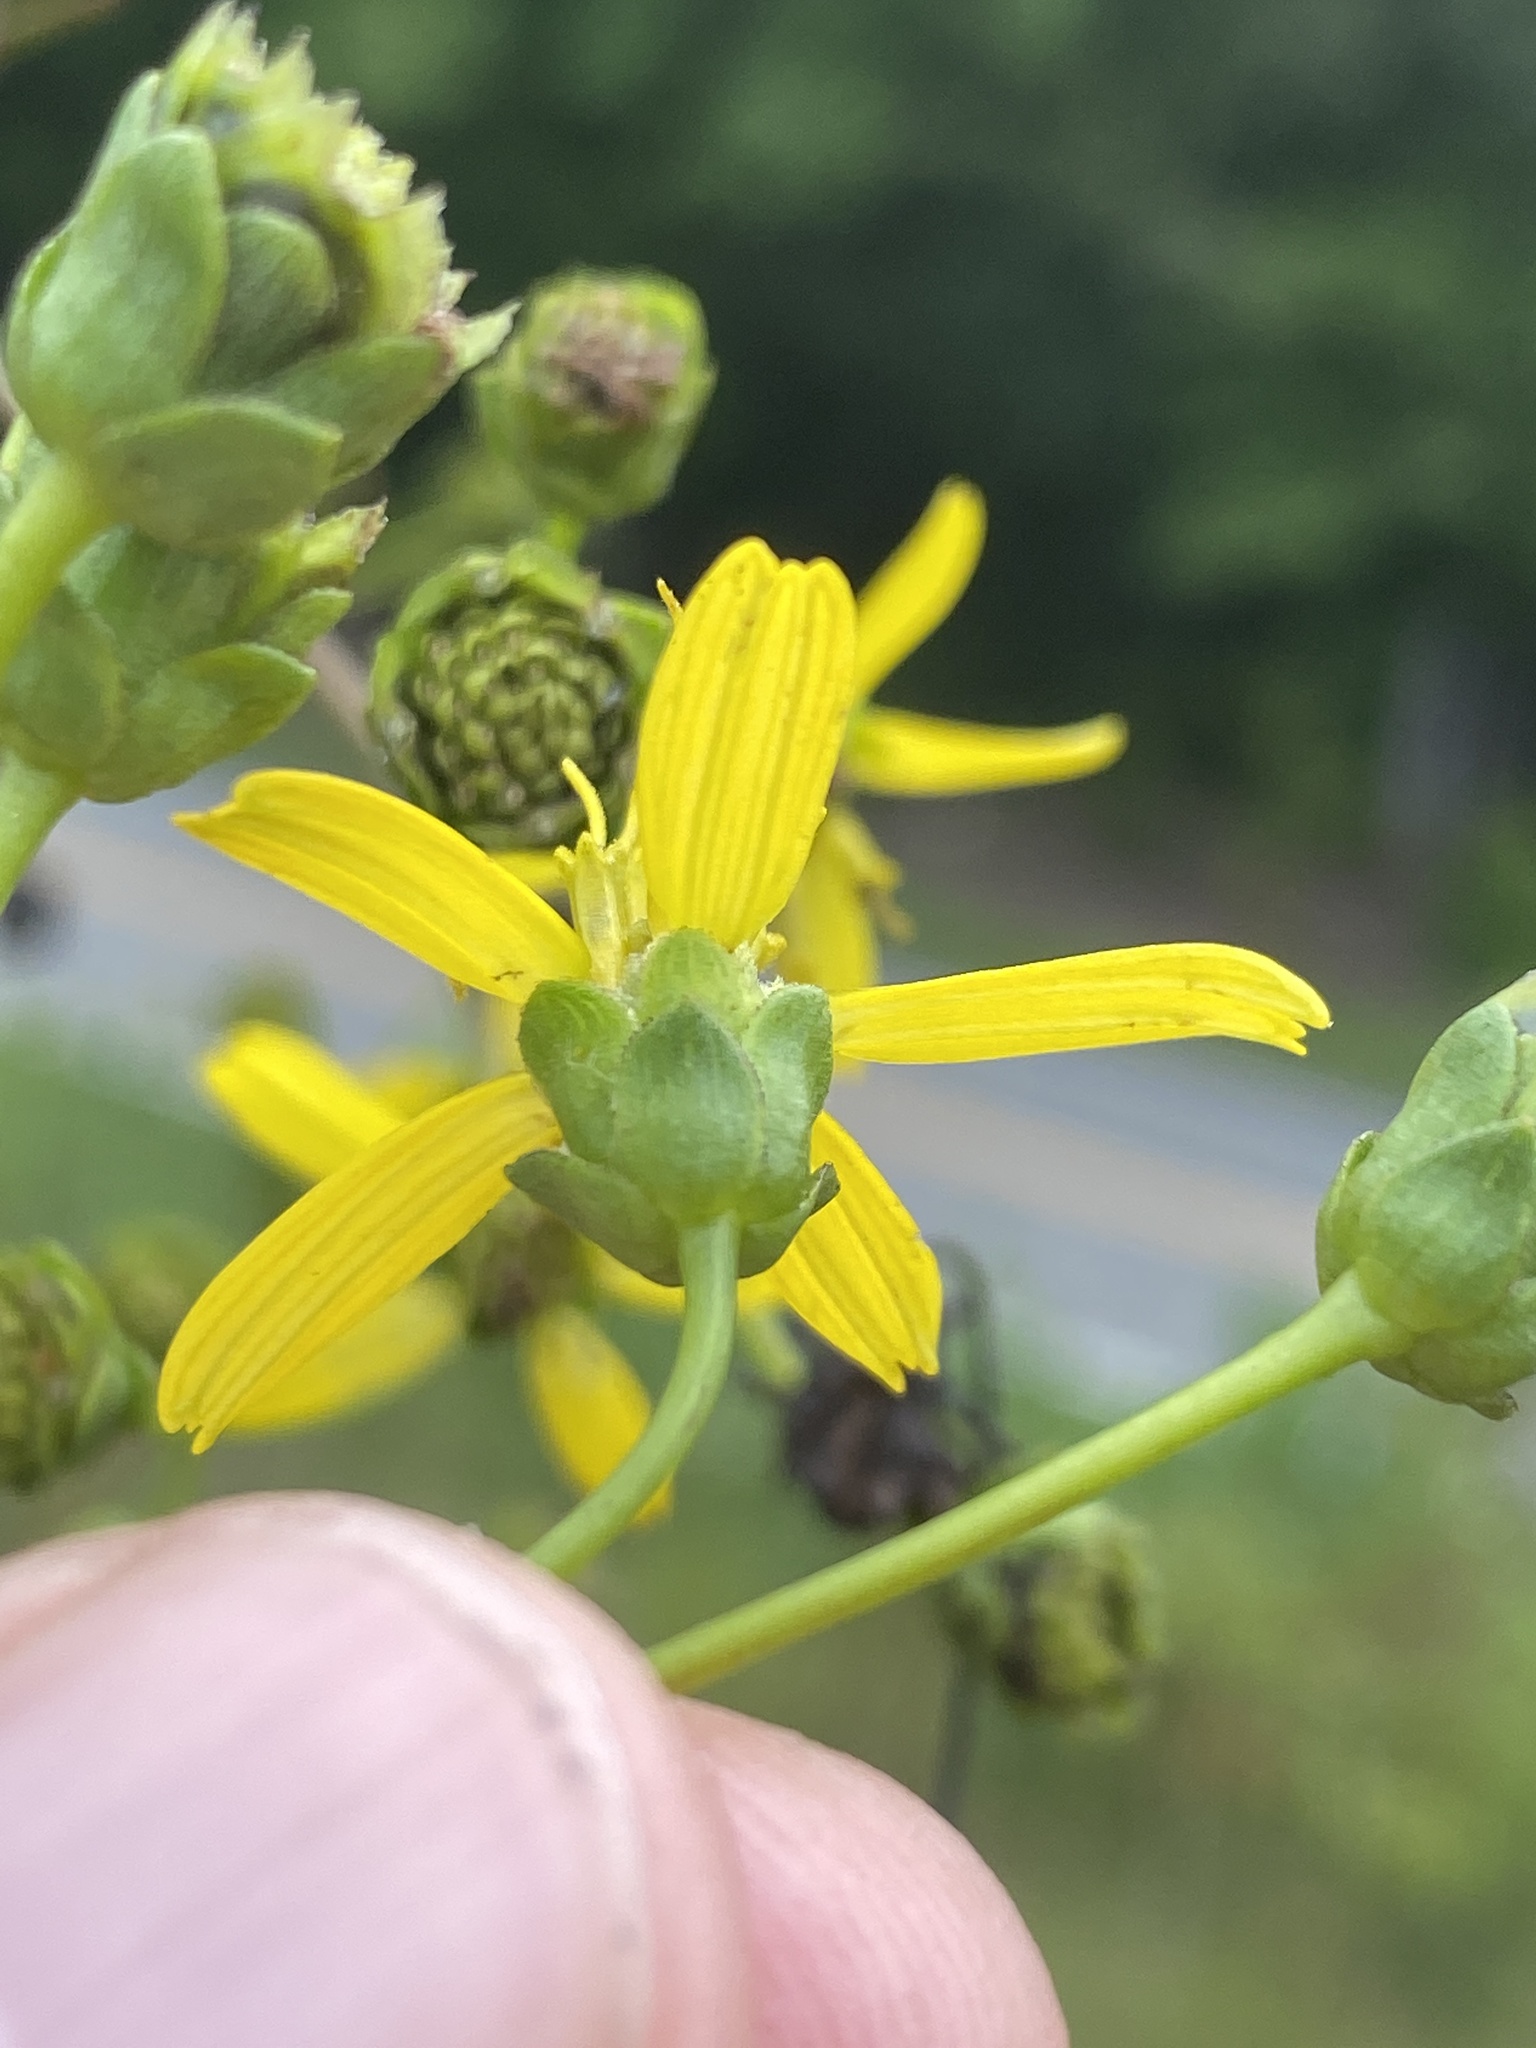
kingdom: Plantae
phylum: Tracheophyta
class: Magnoliopsida
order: Asterales
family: Asteraceae
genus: Silphium
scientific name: Silphium compositum
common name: Lesser basal-leaf rosinweed
